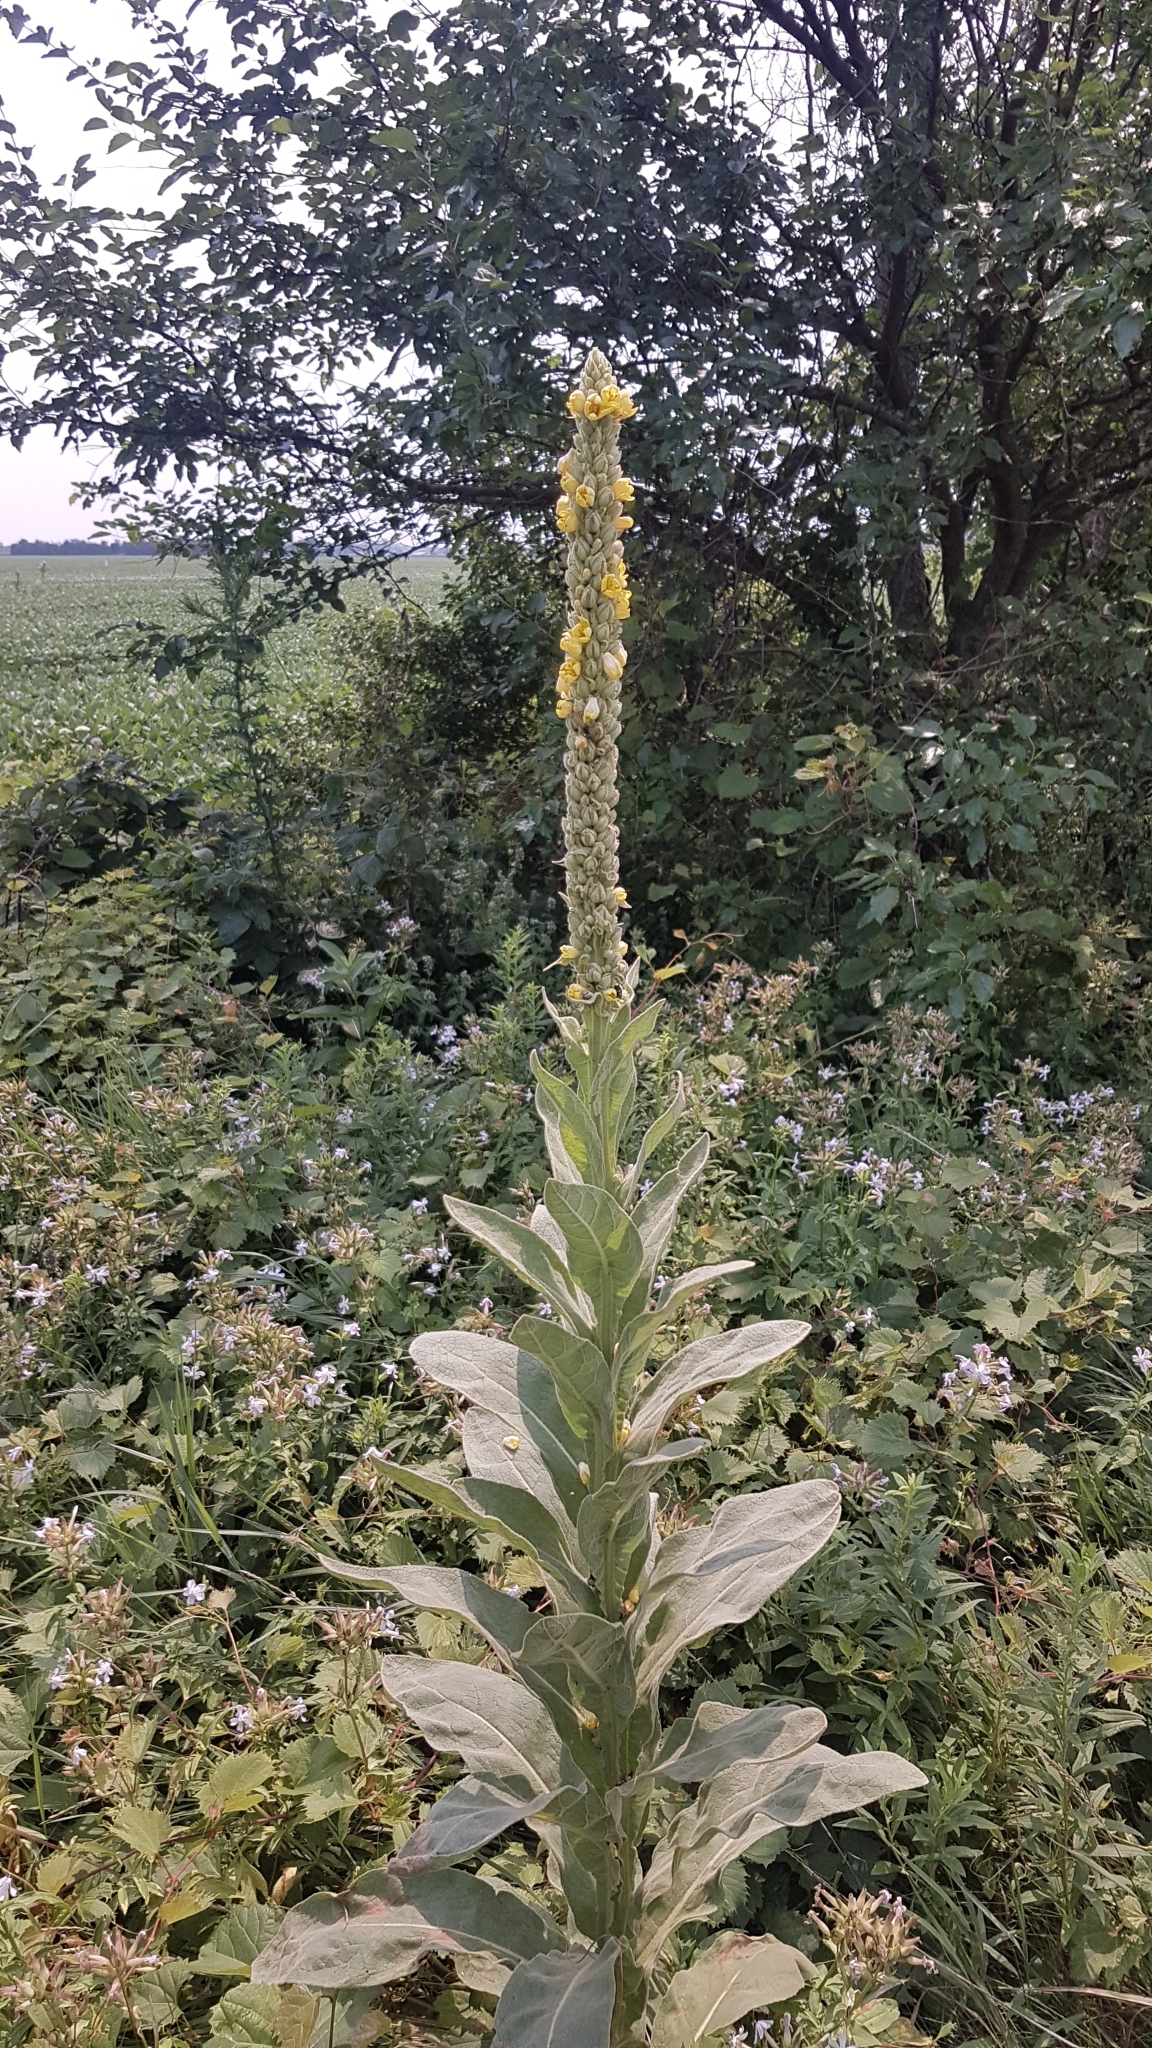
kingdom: Plantae
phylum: Tracheophyta
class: Magnoliopsida
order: Lamiales
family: Scrophulariaceae
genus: Verbascum
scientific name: Verbascum thapsus
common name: Common mullein
